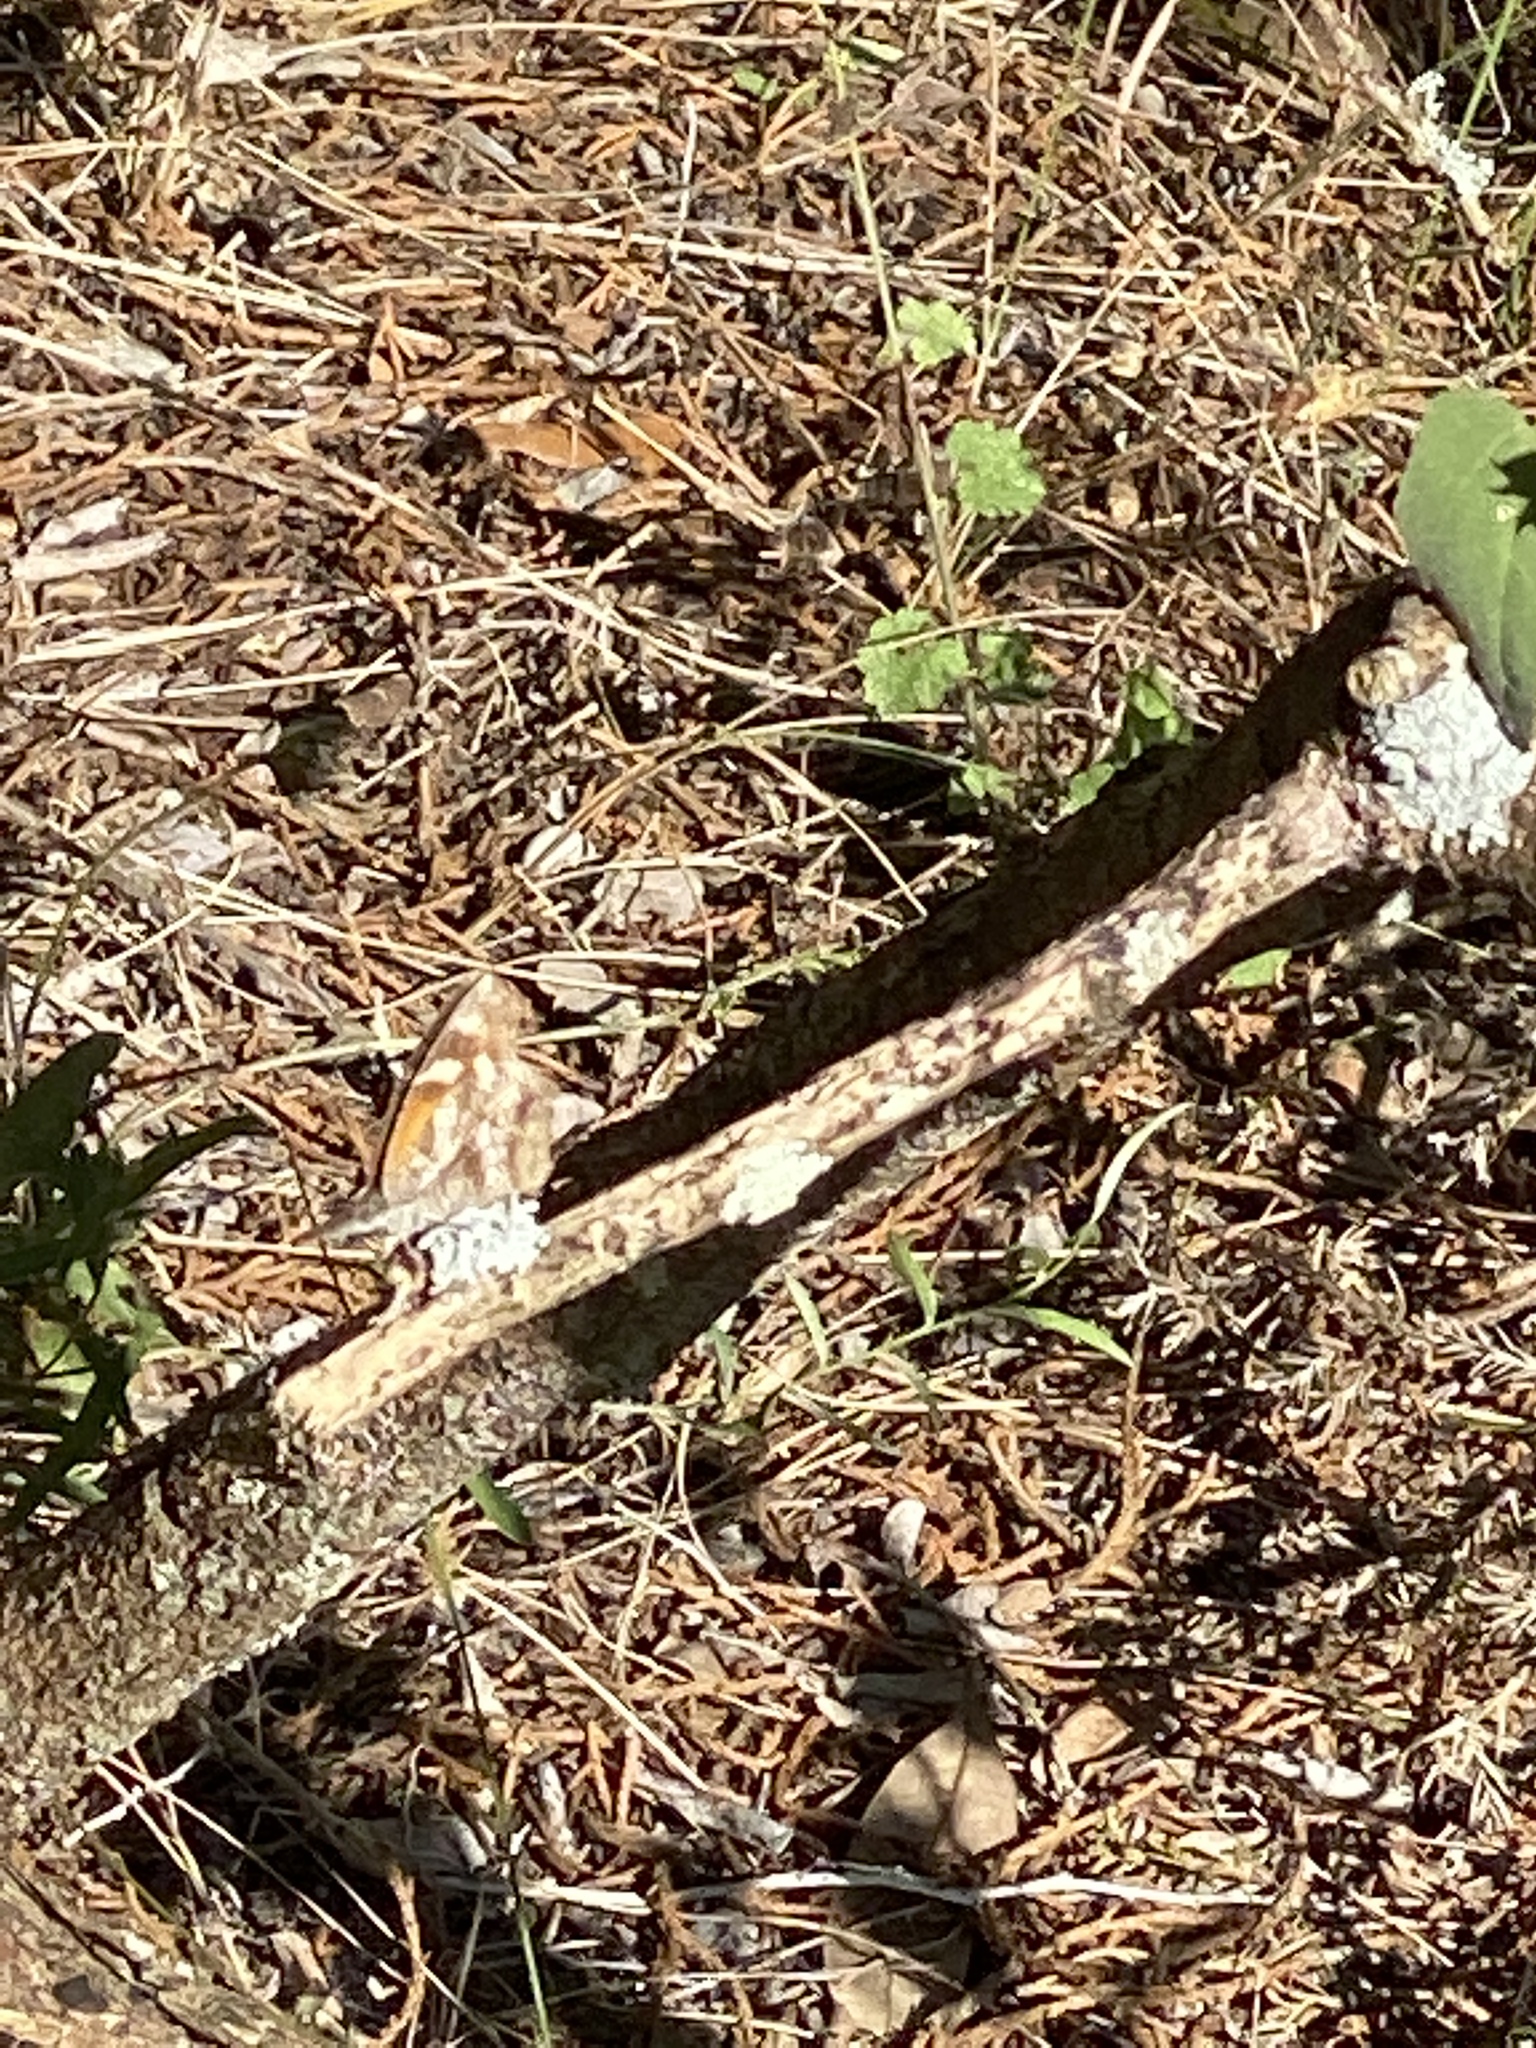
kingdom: Animalia
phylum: Arthropoda
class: Insecta
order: Lepidoptera
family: Nymphalidae
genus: Libytheana
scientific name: Libytheana carinenta
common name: American snout
